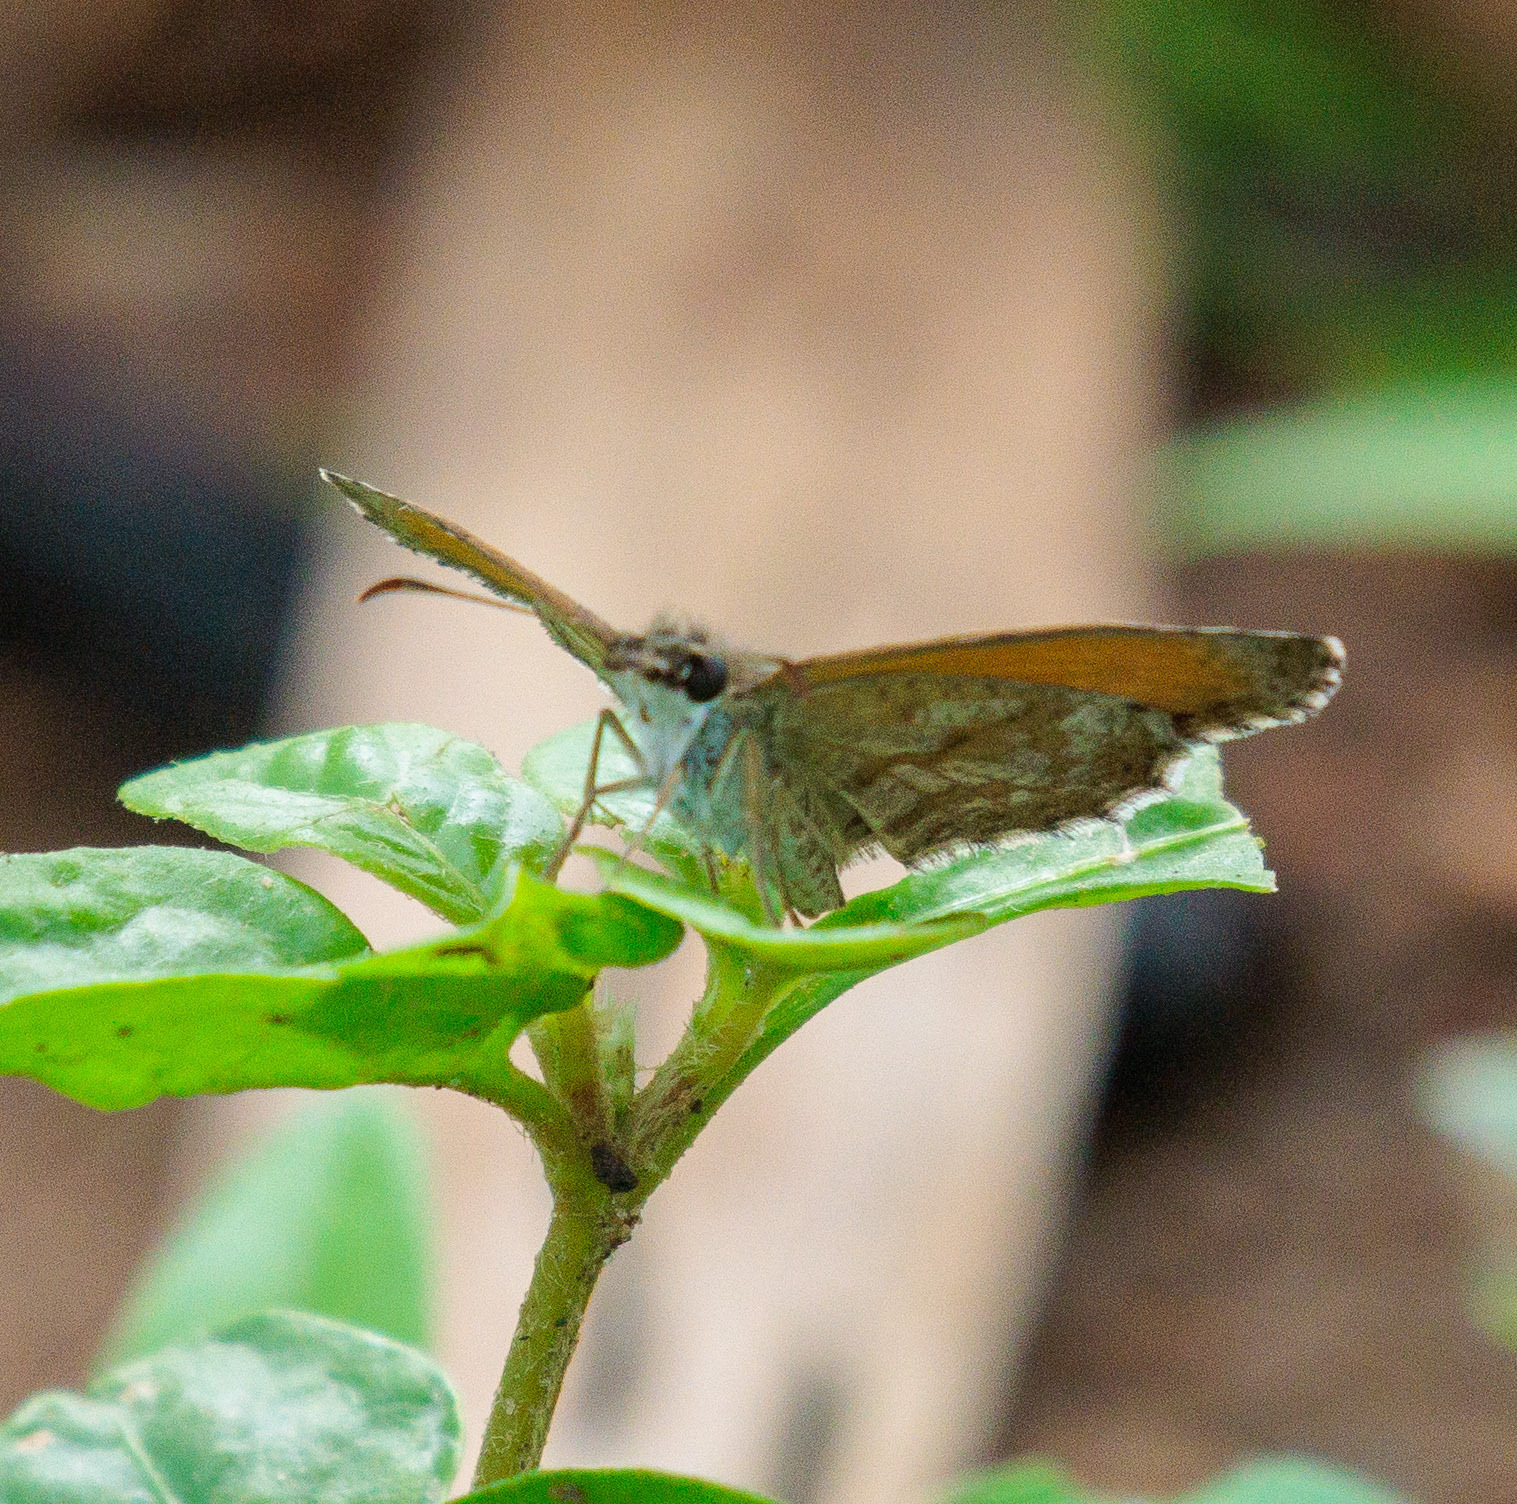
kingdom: Animalia
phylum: Arthropoda
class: Insecta
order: Lepidoptera
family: Hesperiidae
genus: Zopyrion
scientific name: Zopyrion evenor
